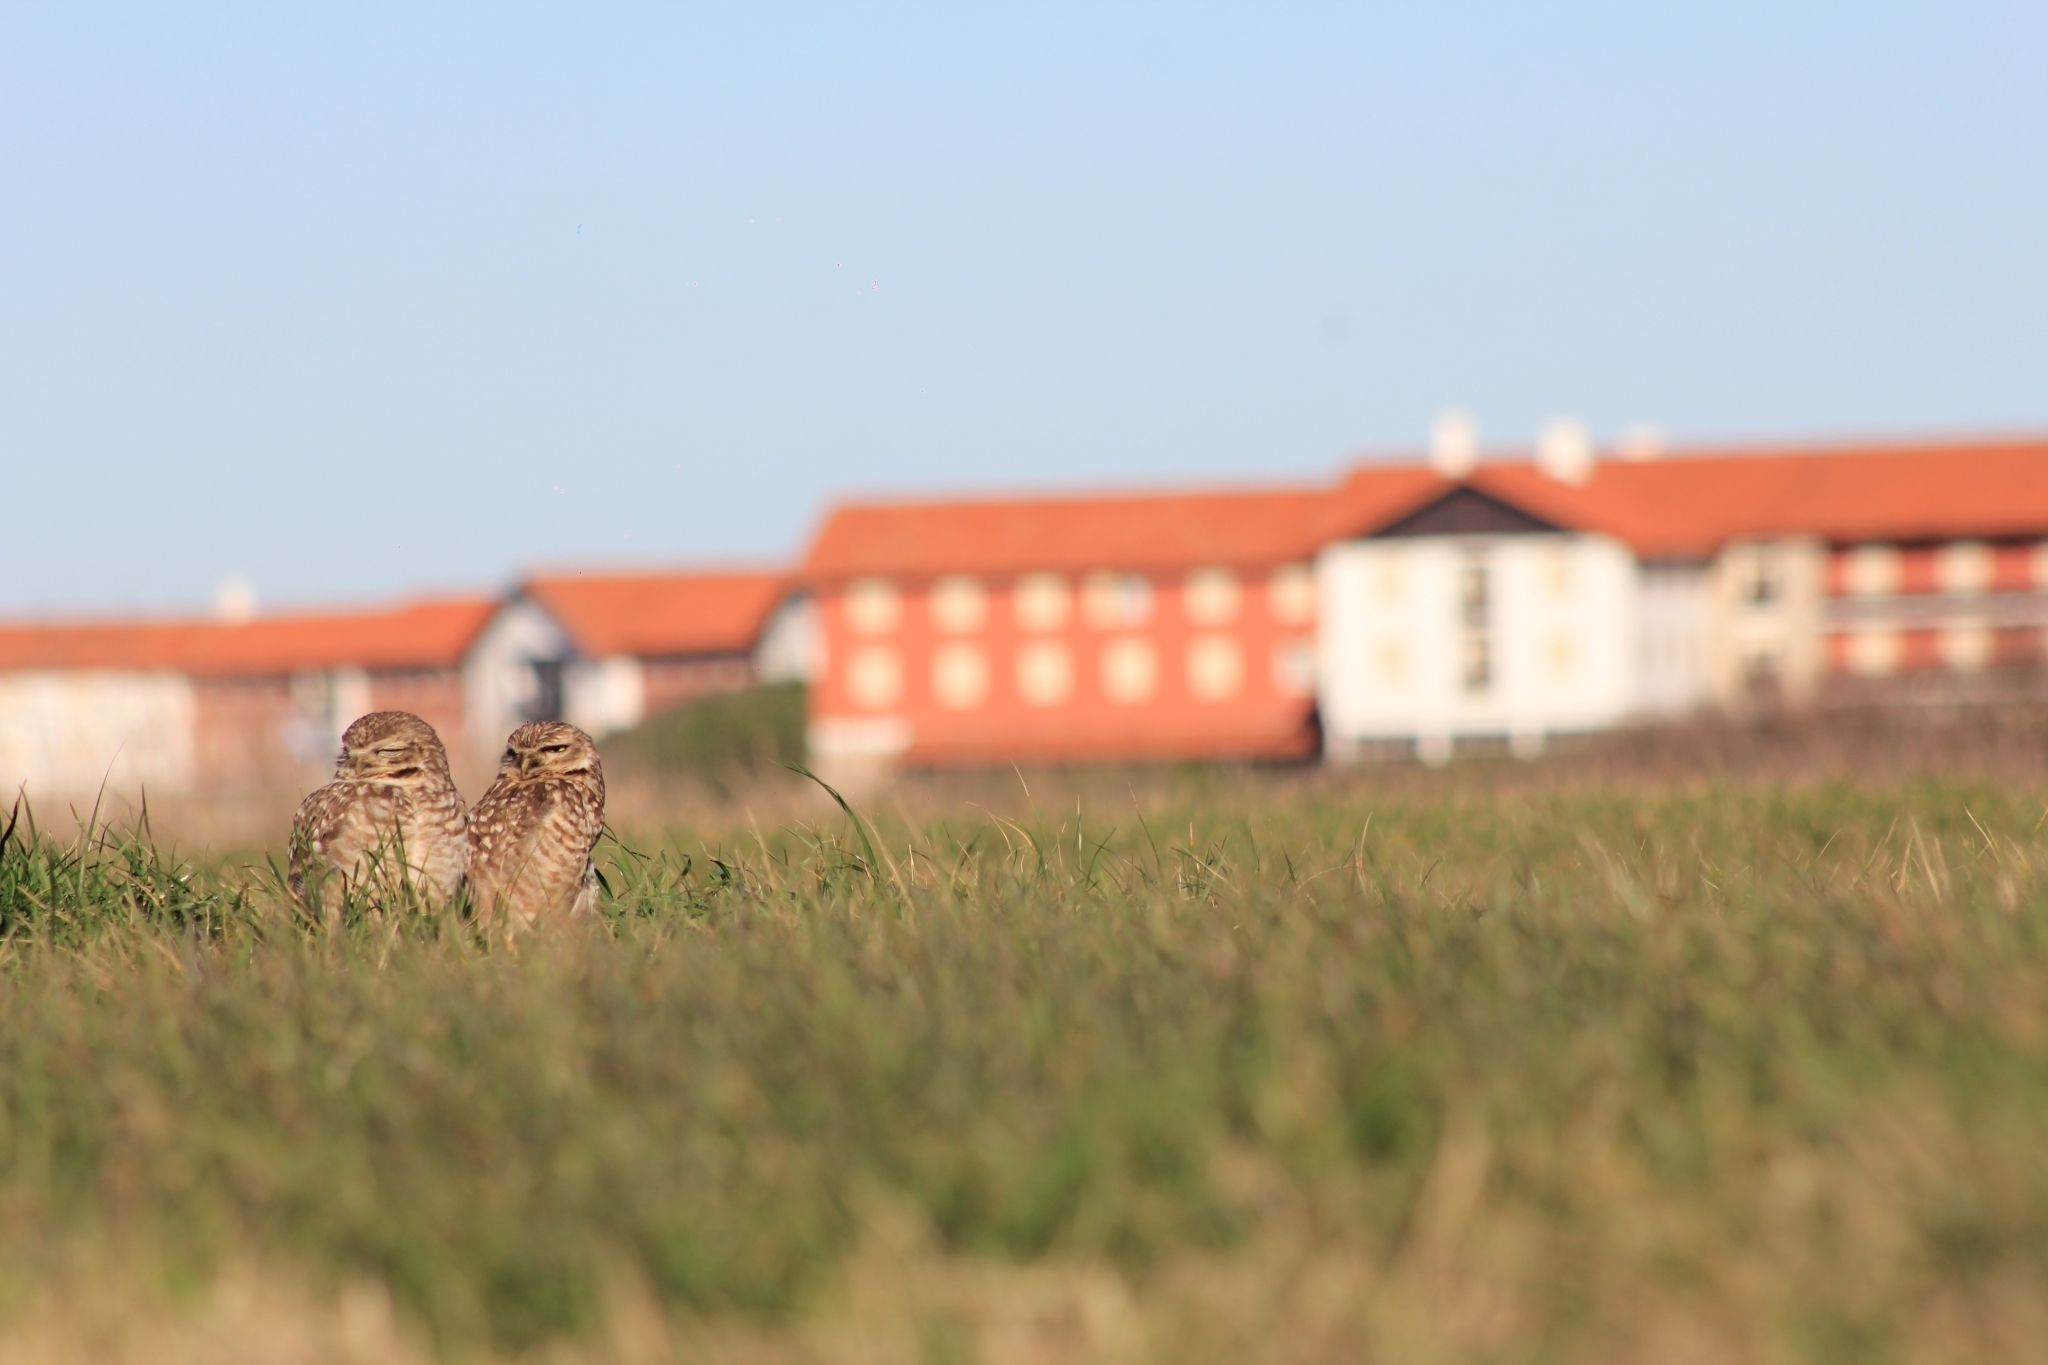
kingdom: Animalia
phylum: Chordata
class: Aves
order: Strigiformes
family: Strigidae
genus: Athene
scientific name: Athene cunicularia
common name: Burrowing owl
